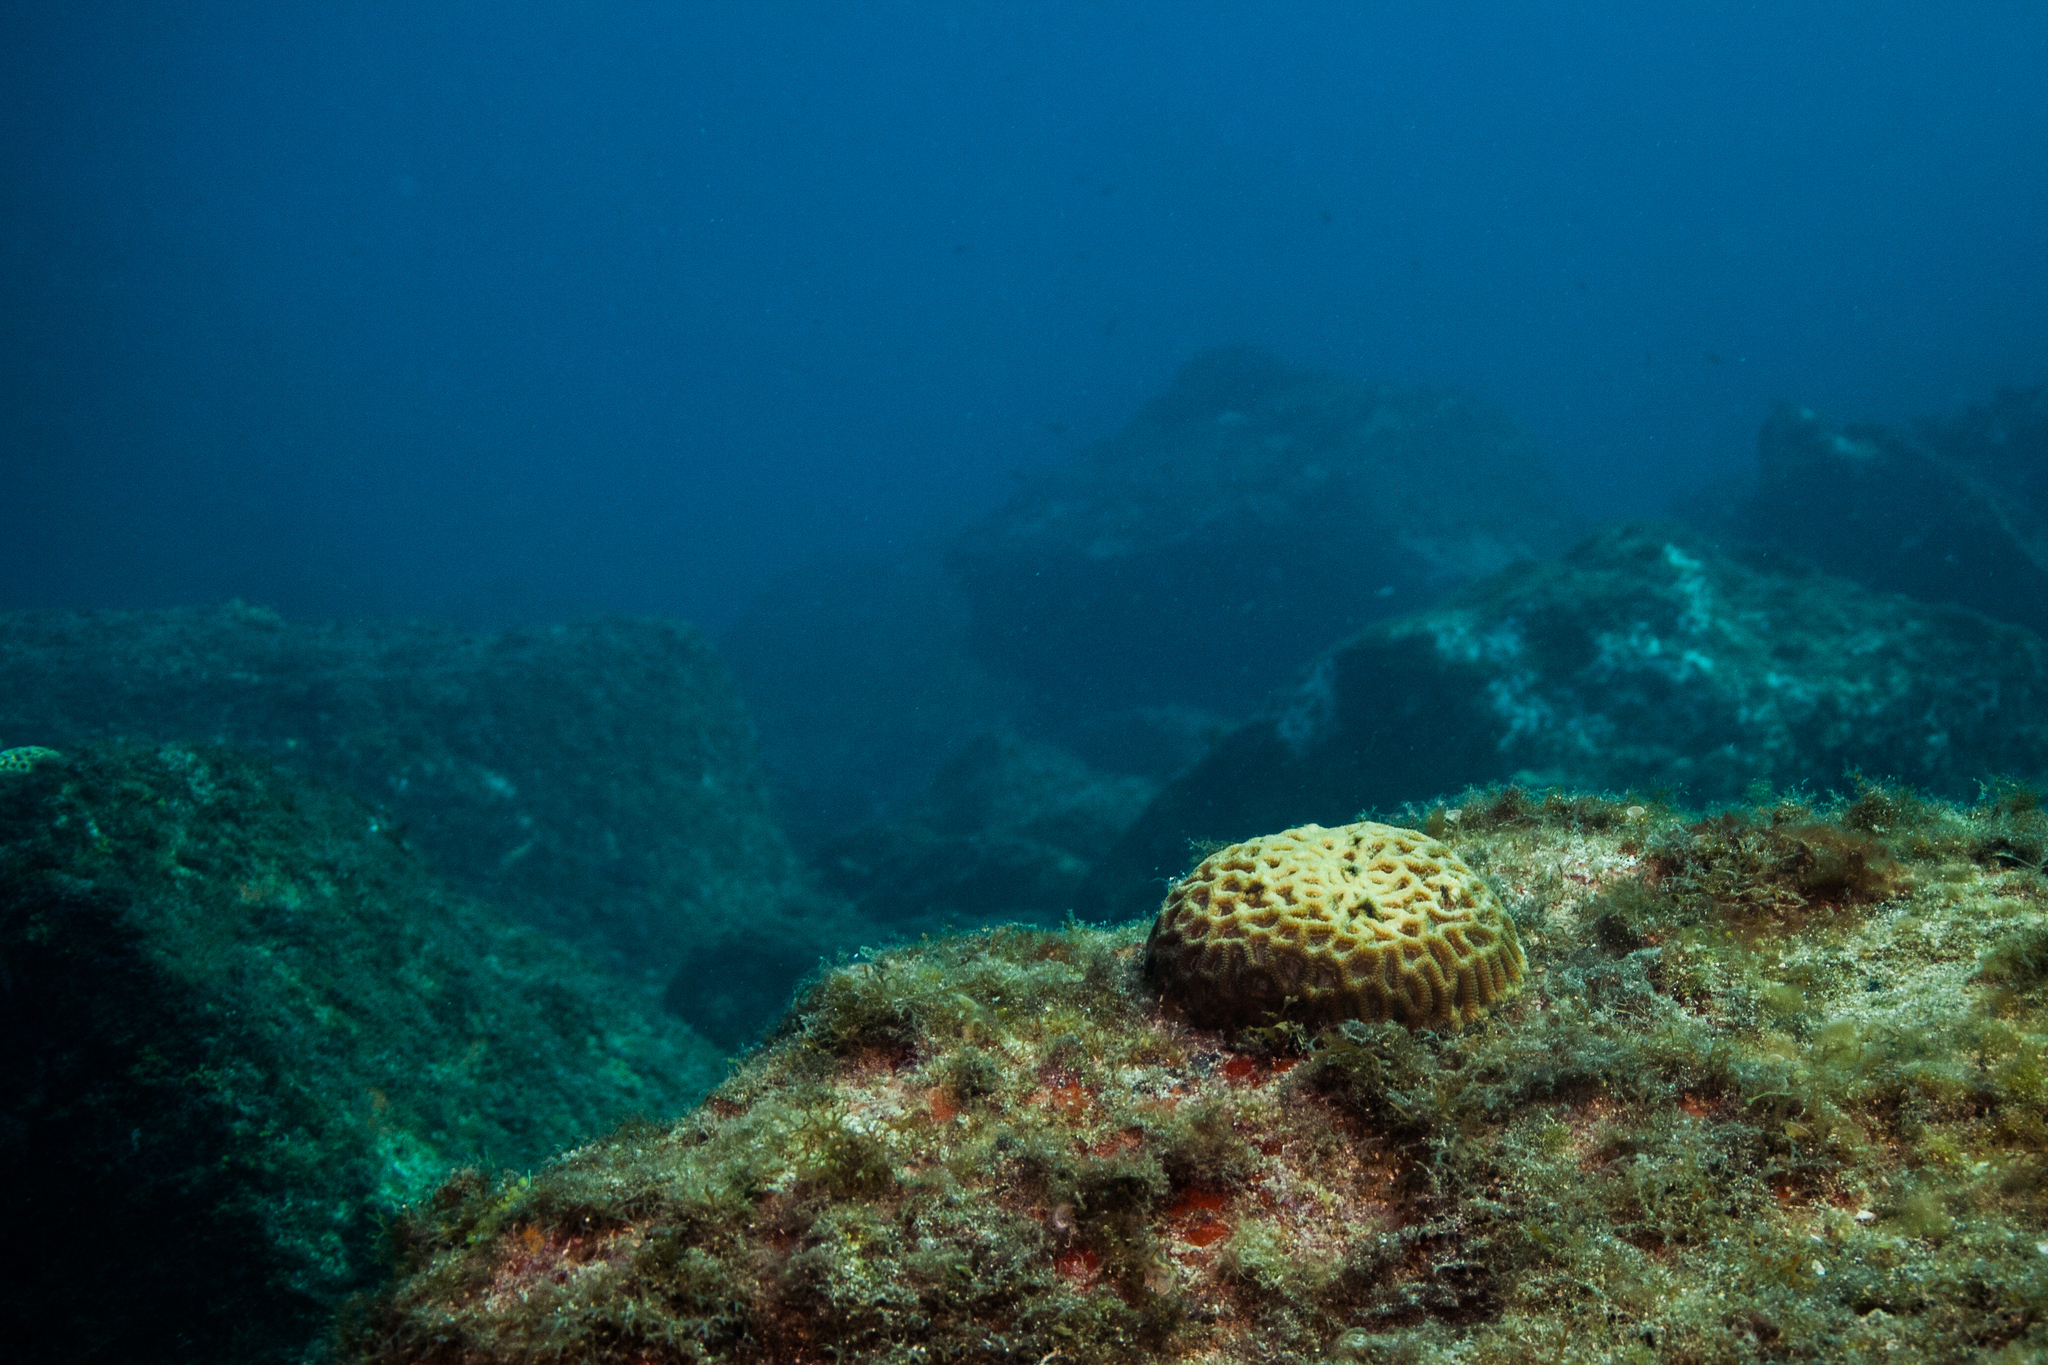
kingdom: Animalia
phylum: Cnidaria
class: Anthozoa
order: Scleractinia
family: Faviidae
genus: Mussismilia
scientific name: Mussismilia hispida
